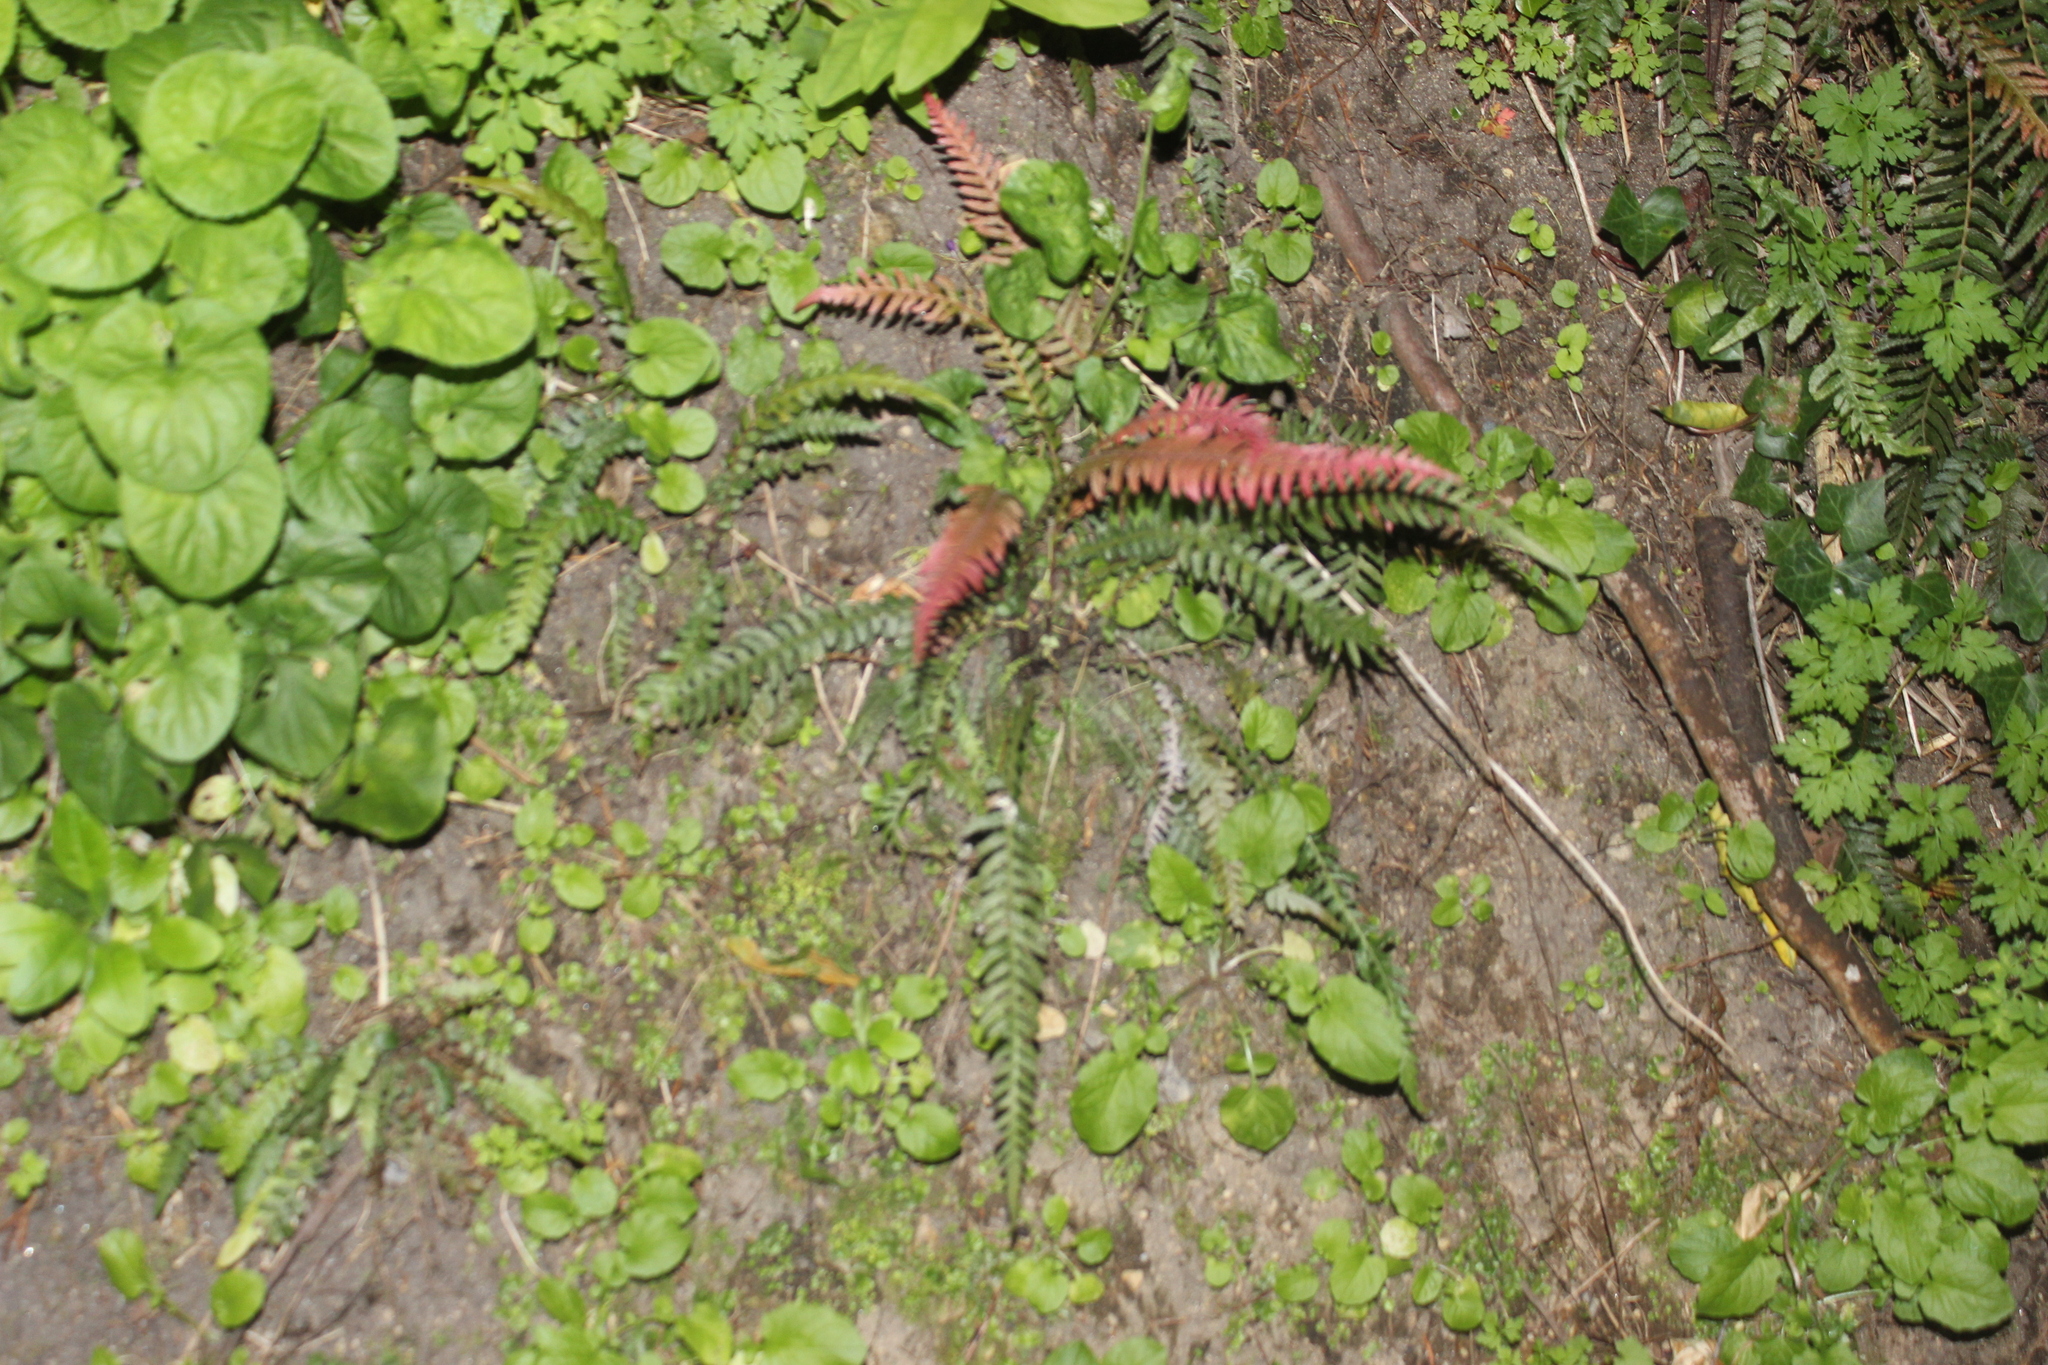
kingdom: Plantae
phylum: Tracheophyta
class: Polypodiopsida
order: Polypodiales
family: Blechnaceae
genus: Doodia
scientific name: Doodia australis
